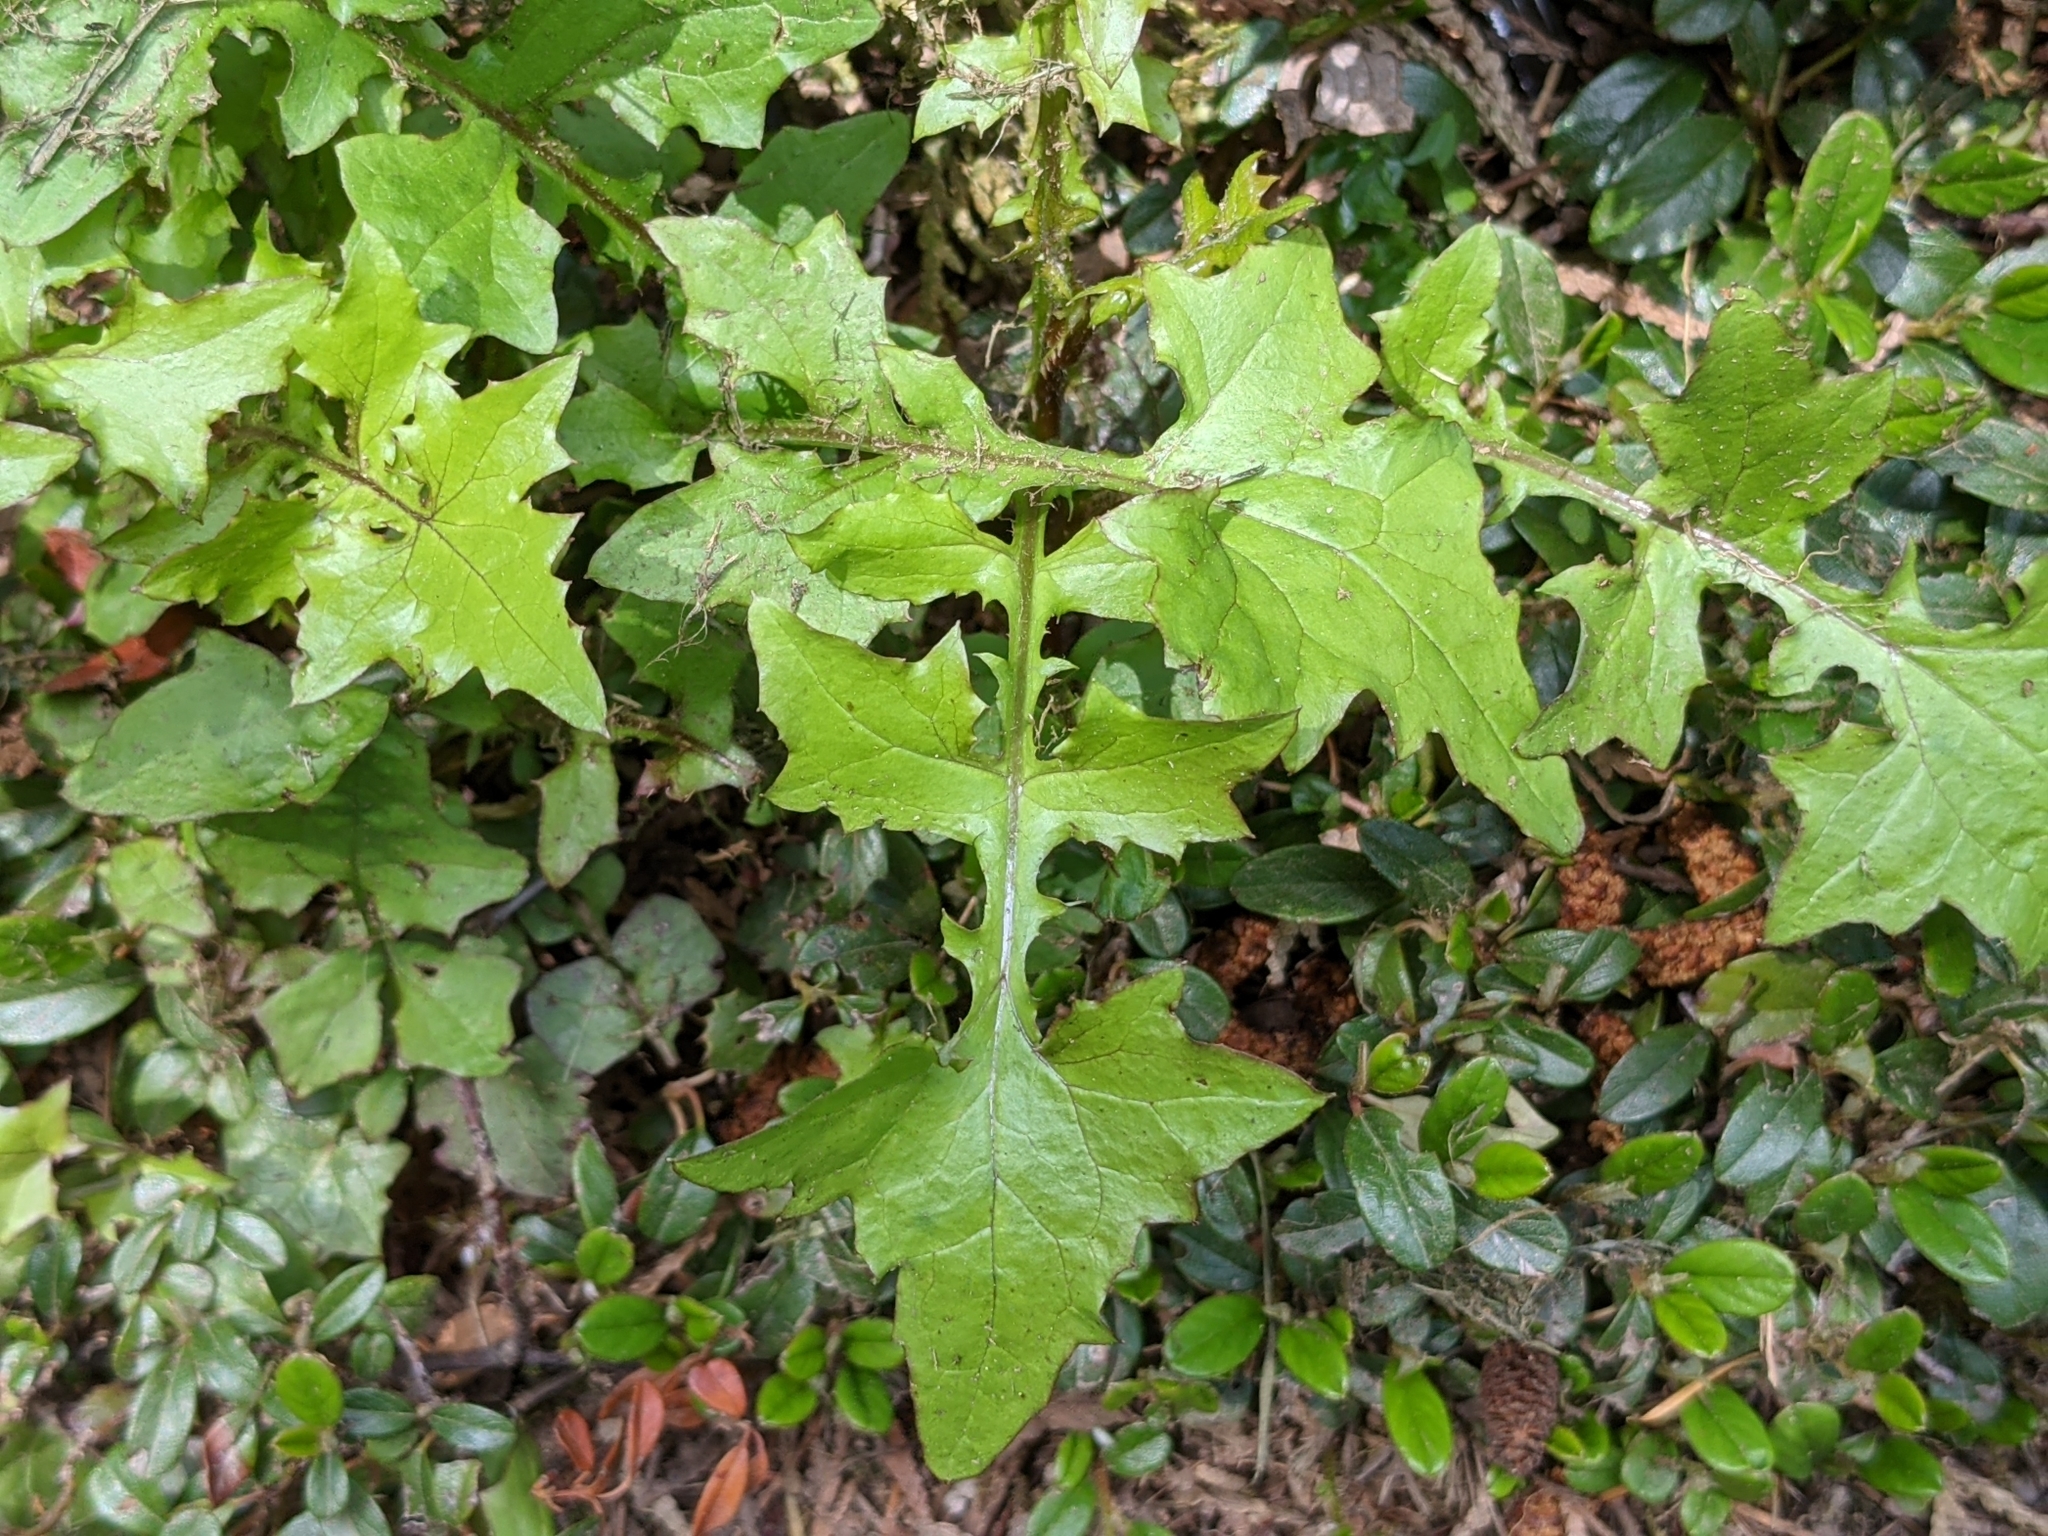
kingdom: Plantae
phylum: Tracheophyta
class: Magnoliopsida
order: Asterales
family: Asteraceae
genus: Mycelis
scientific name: Mycelis muralis
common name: Wall lettuce
